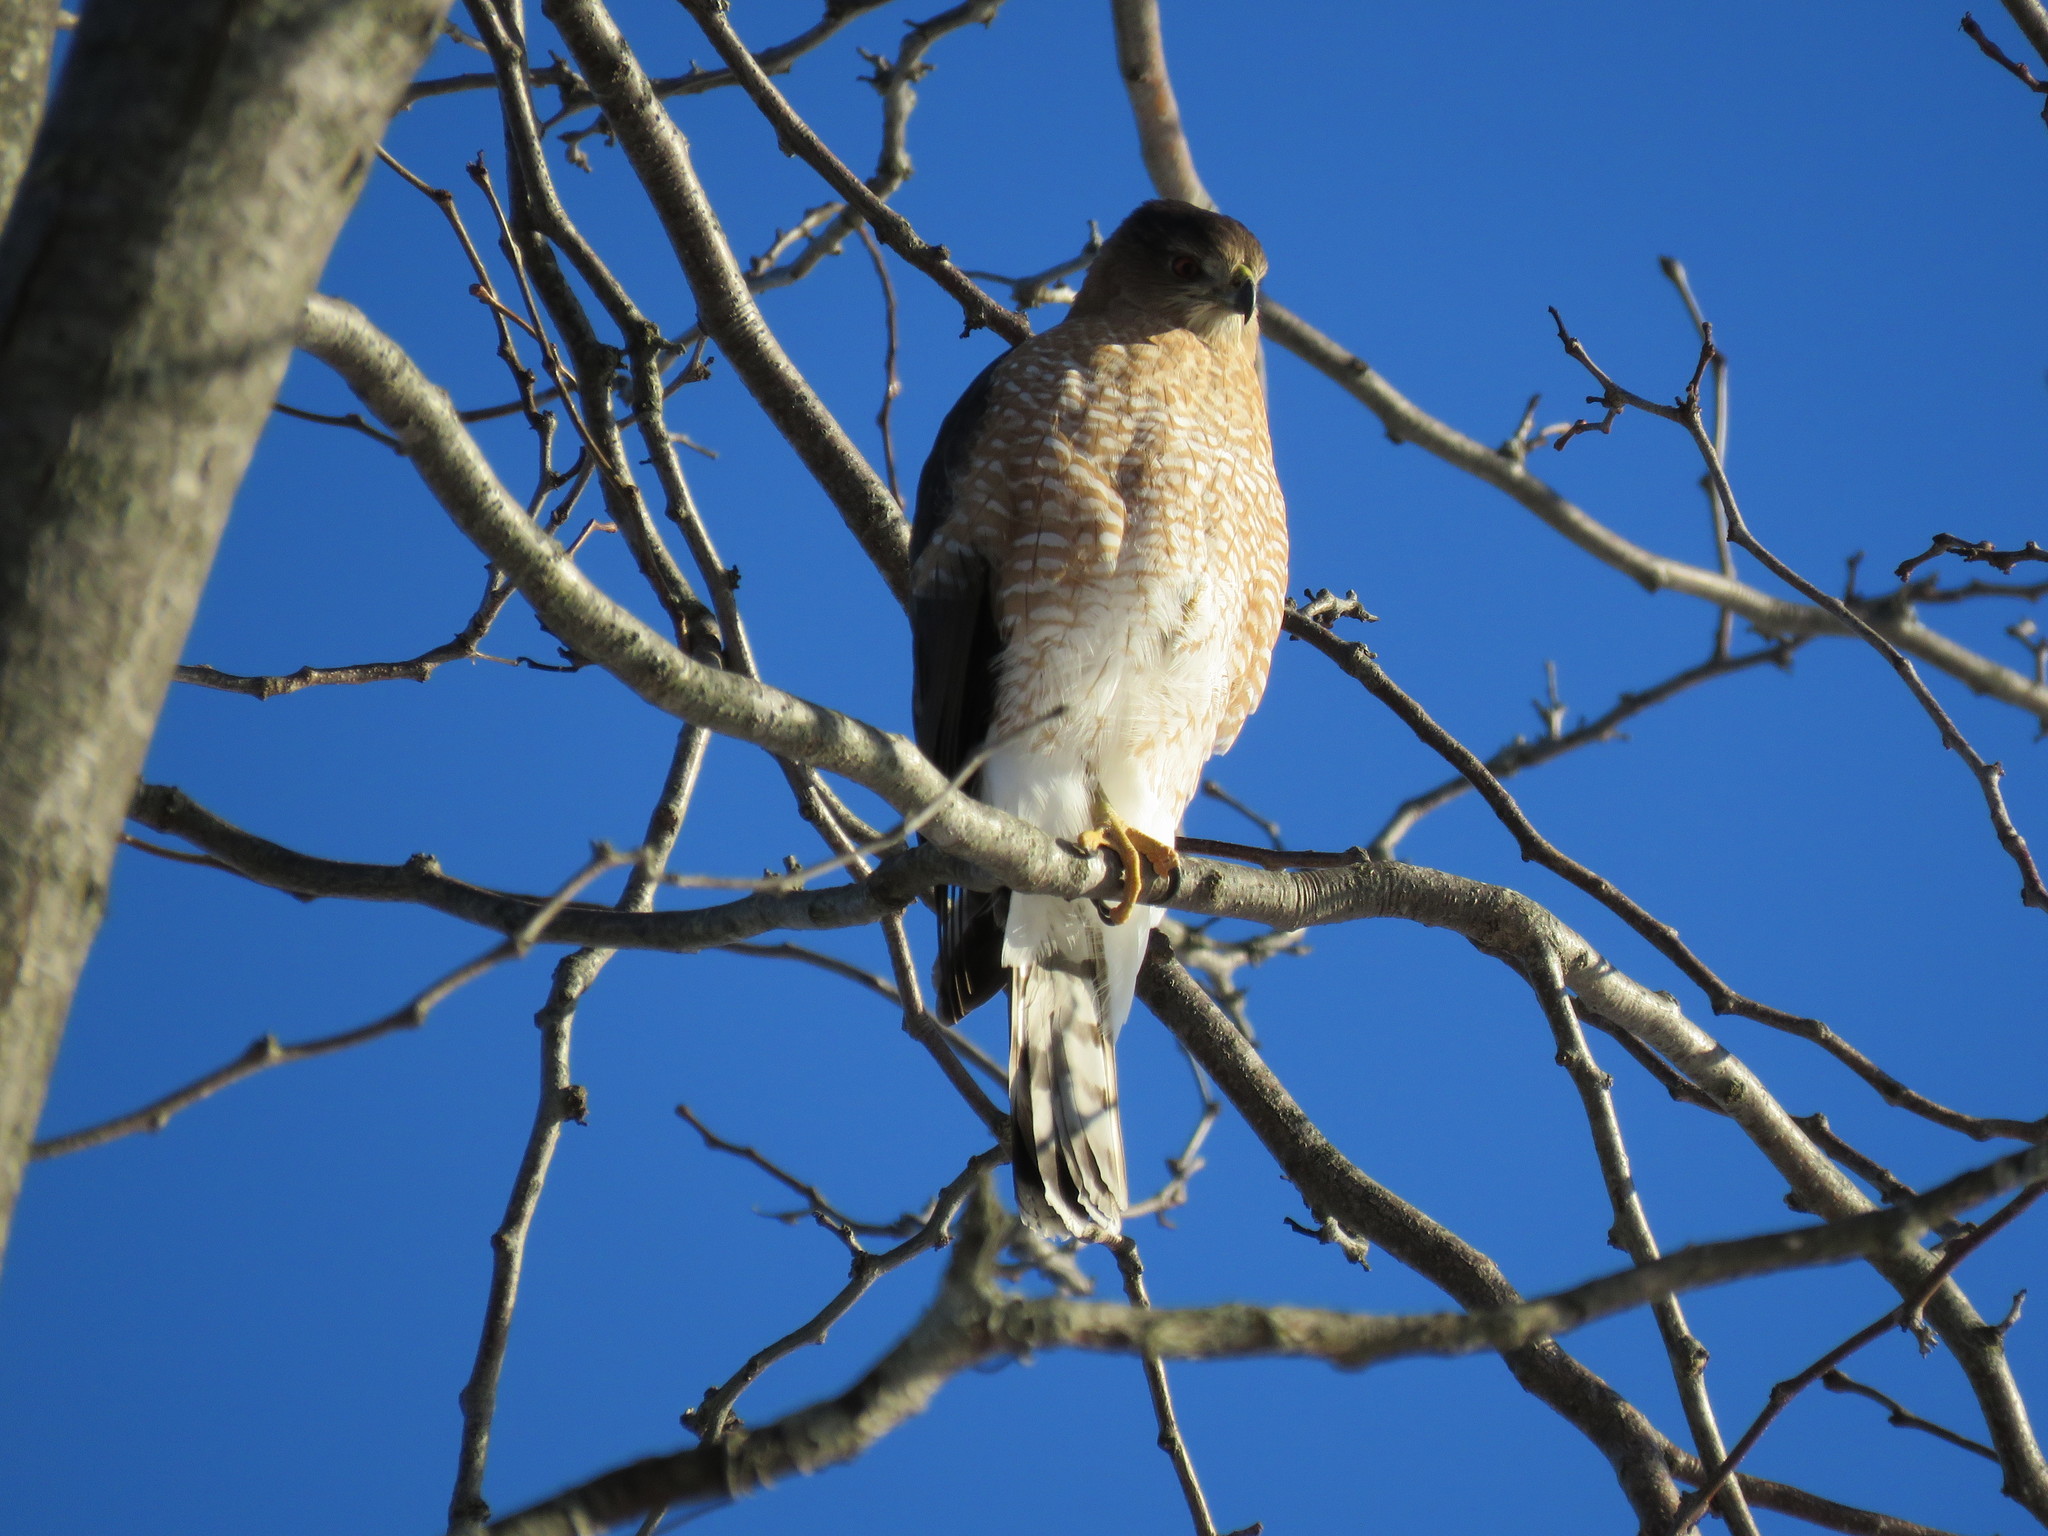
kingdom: Animalia
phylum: Chordata
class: Aves
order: Accipitriformes
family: Accipitridae
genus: Accipiter
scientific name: Accipiter cooperii
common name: Cooper's hawk
